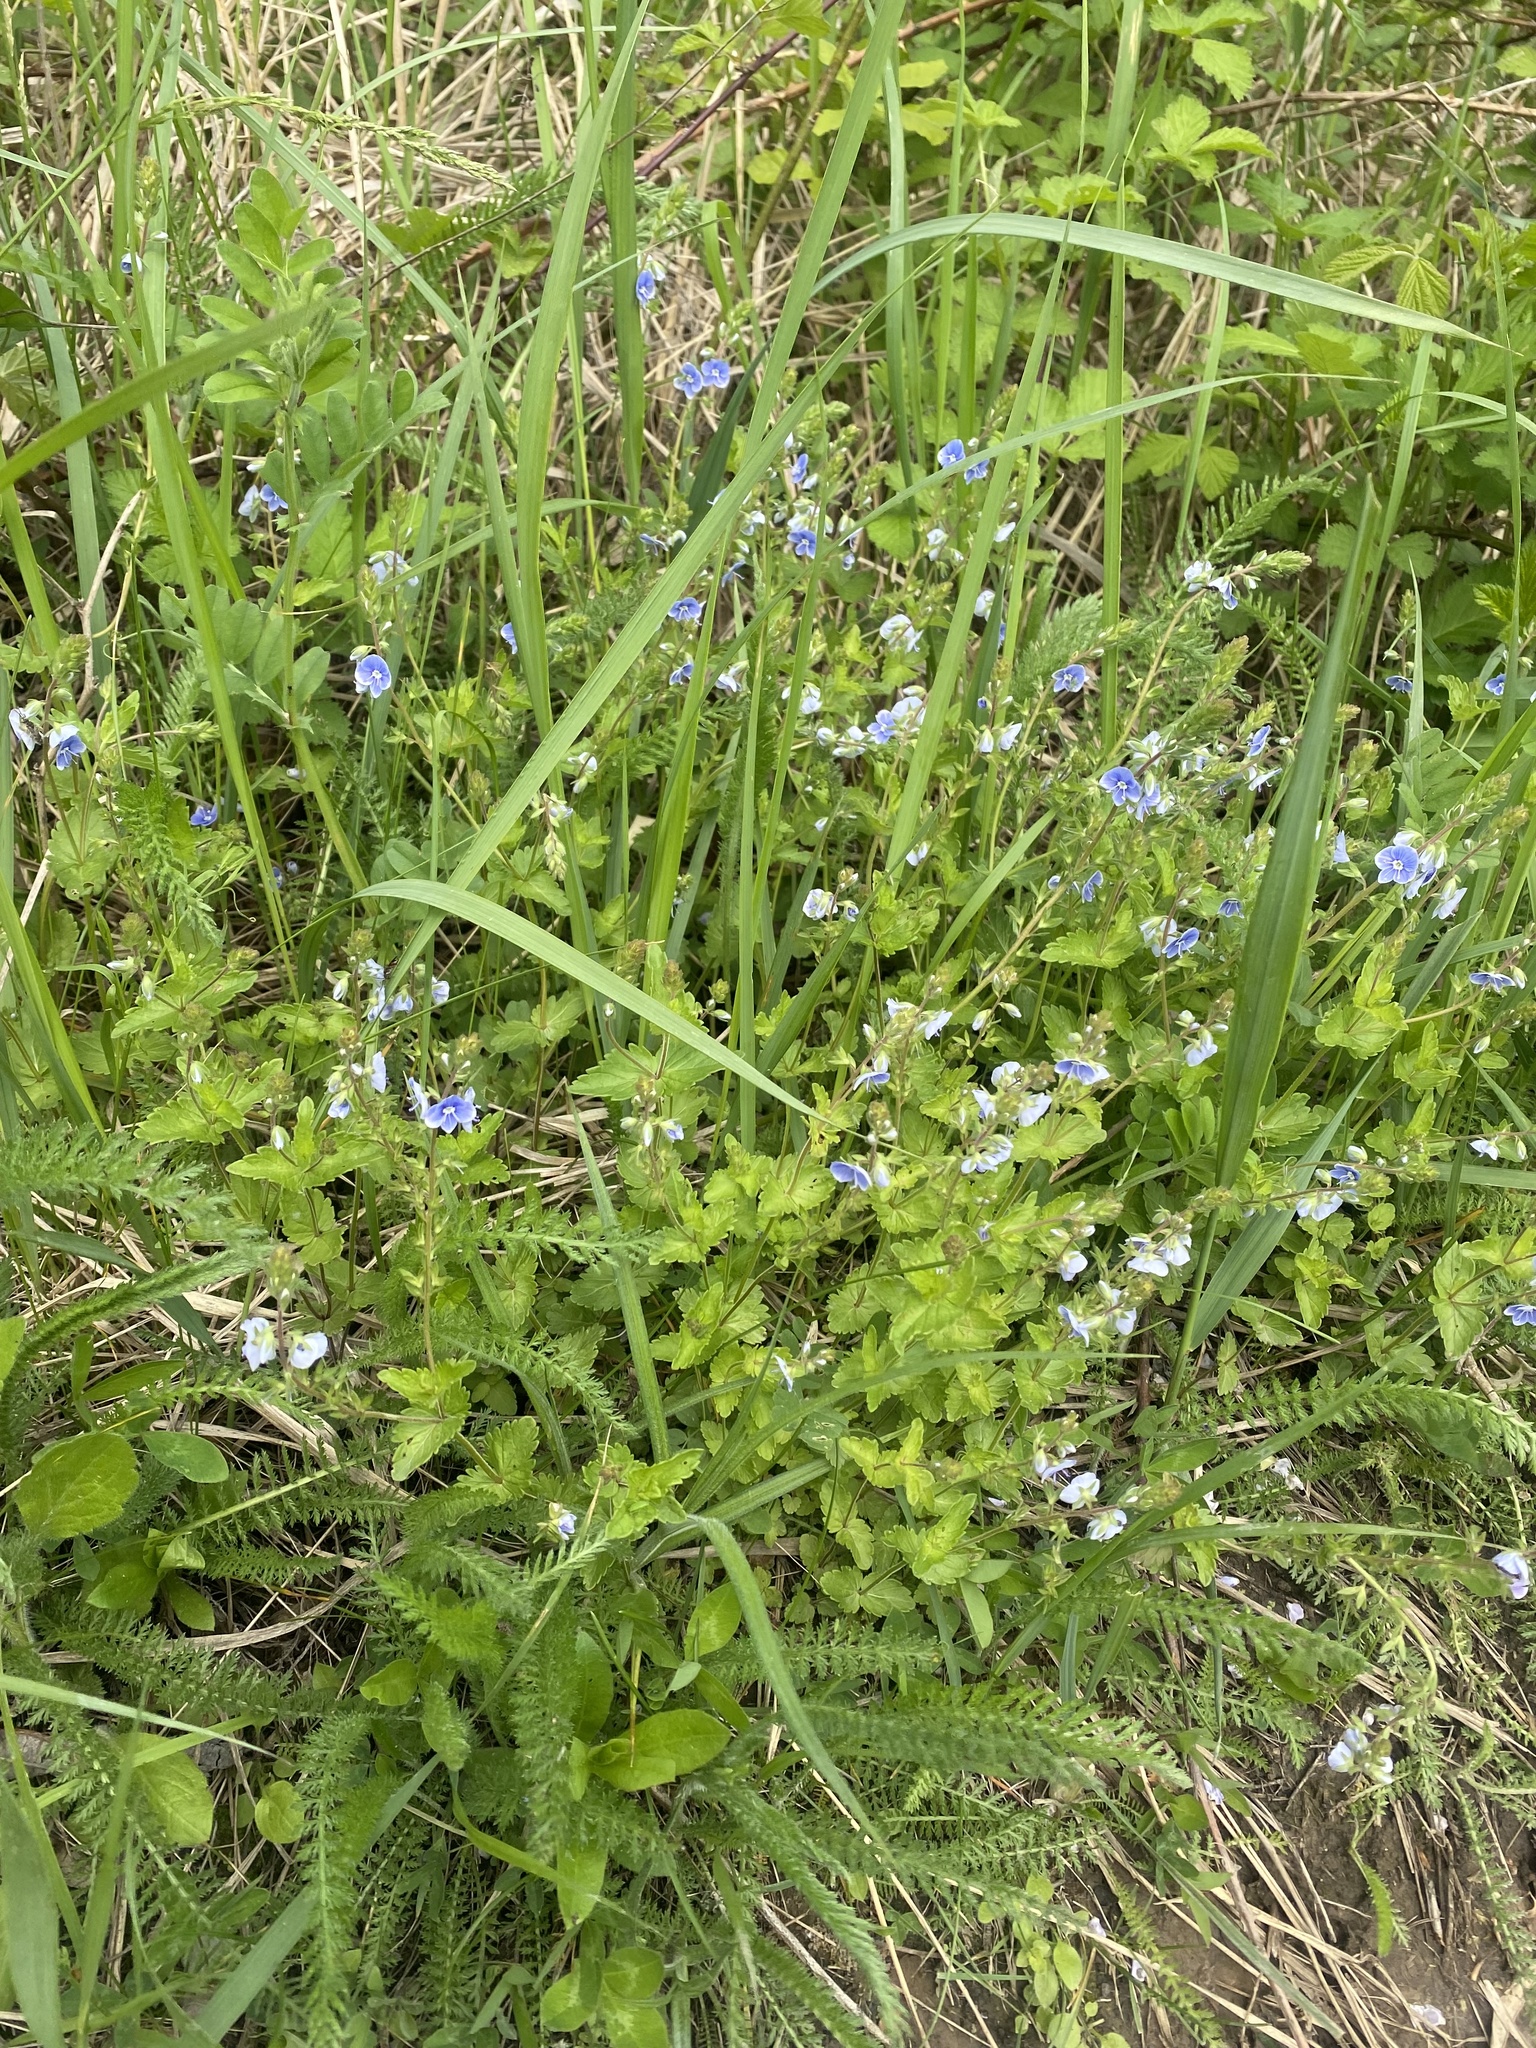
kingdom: Plantae
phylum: Tracheophyta
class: Magnoliopsida
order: Lamiales
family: Plantaginaceae
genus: Veronica
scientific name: Veronica chamaedrys
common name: Germander speedwell
